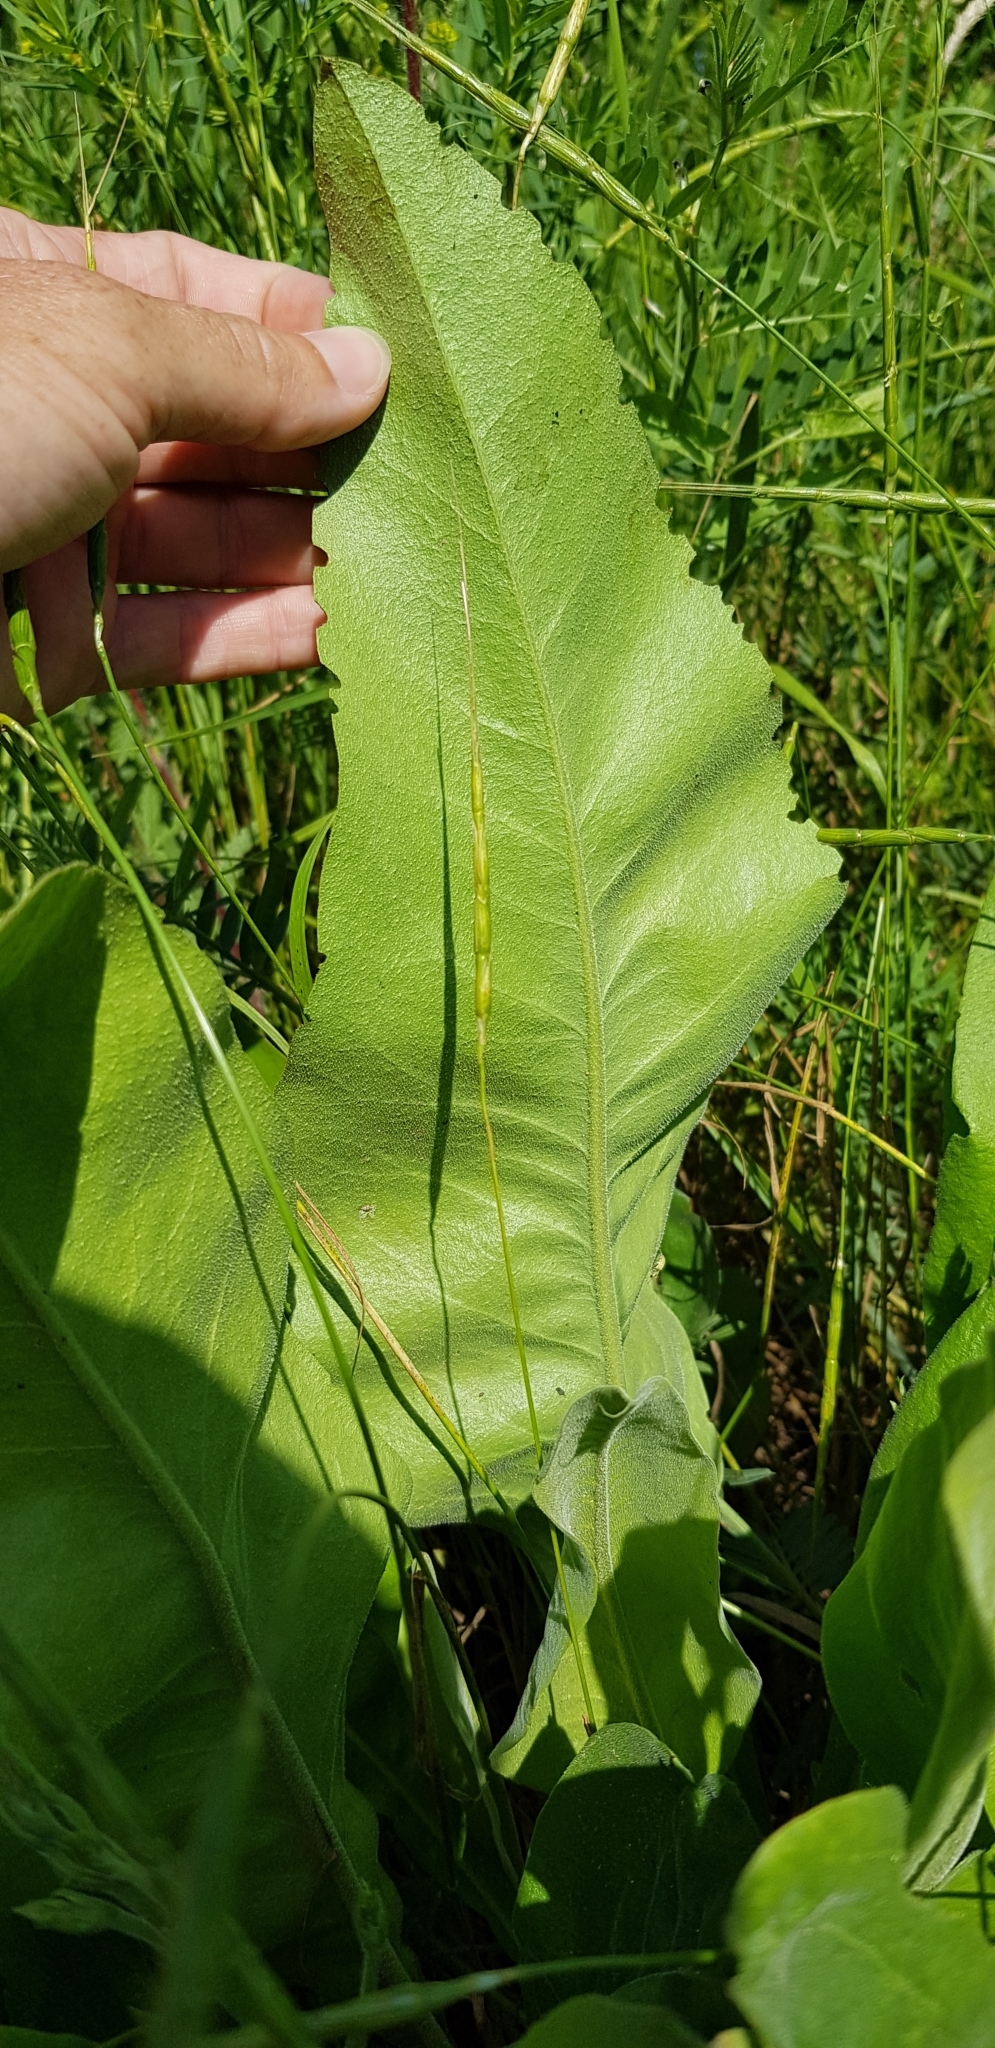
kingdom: Plantae
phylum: Tracheophyta
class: Magnoliopsida
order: Caryophyllales
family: Plumbaginaceae
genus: Limonium
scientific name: Limonium platyphyllum
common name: Florist's sea lavender
